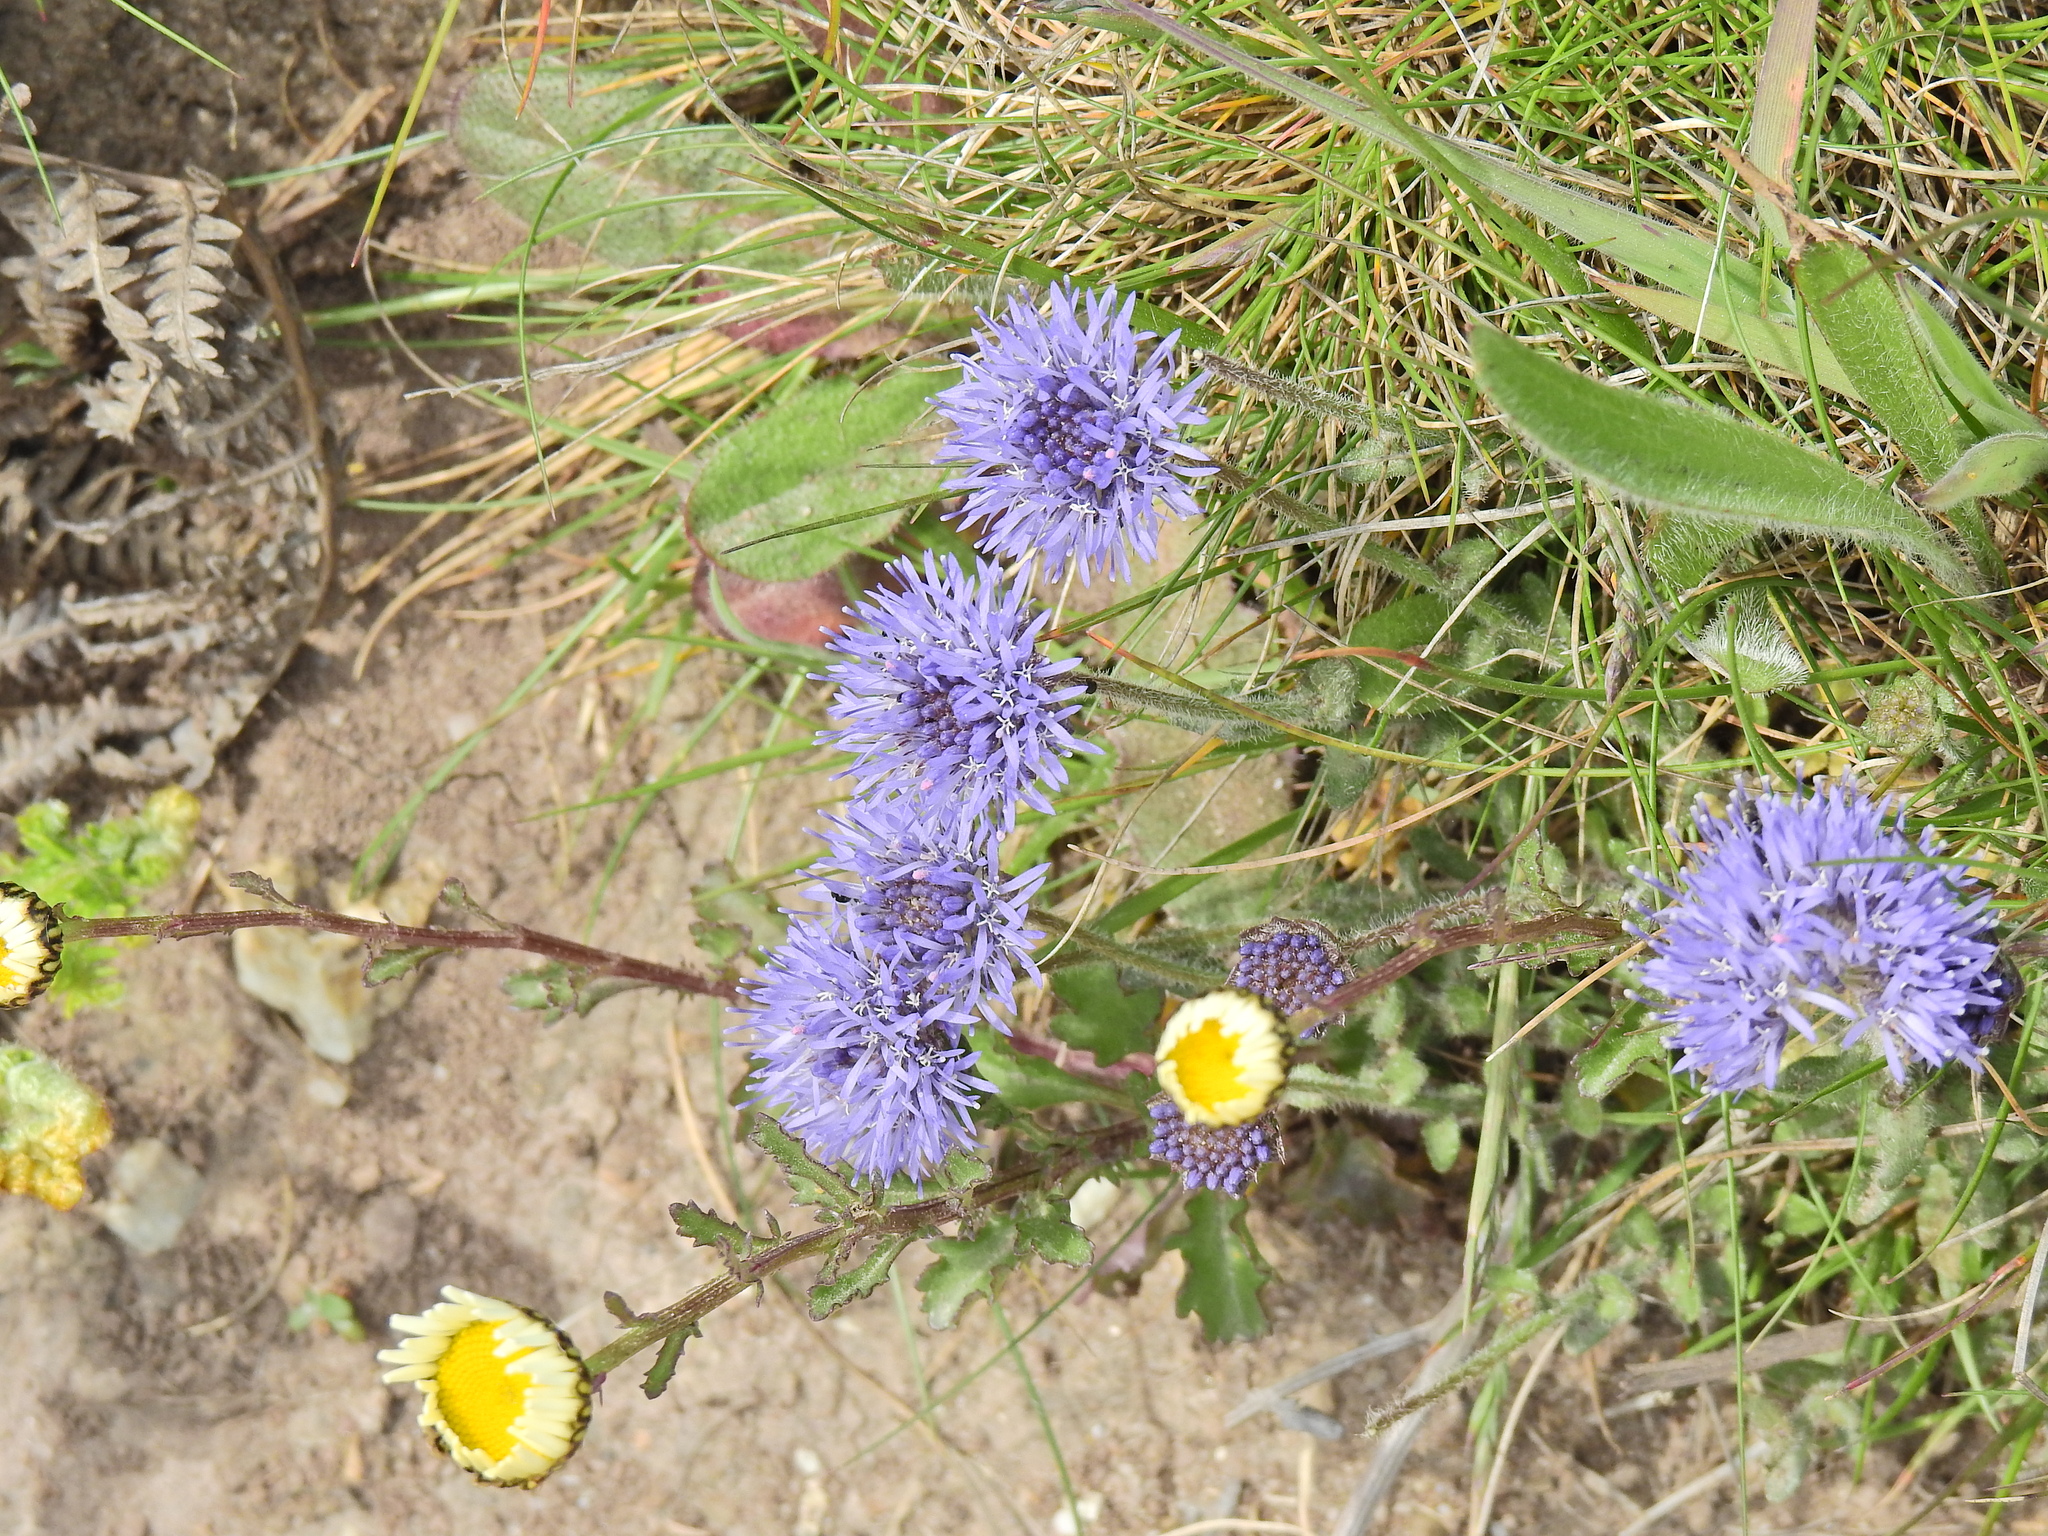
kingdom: Plantae
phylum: Tracheophyta
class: Magnoliopsida
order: Asterales
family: Campanulaceae
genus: Jasione
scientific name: Jasione montana
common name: Sheep's-bit
